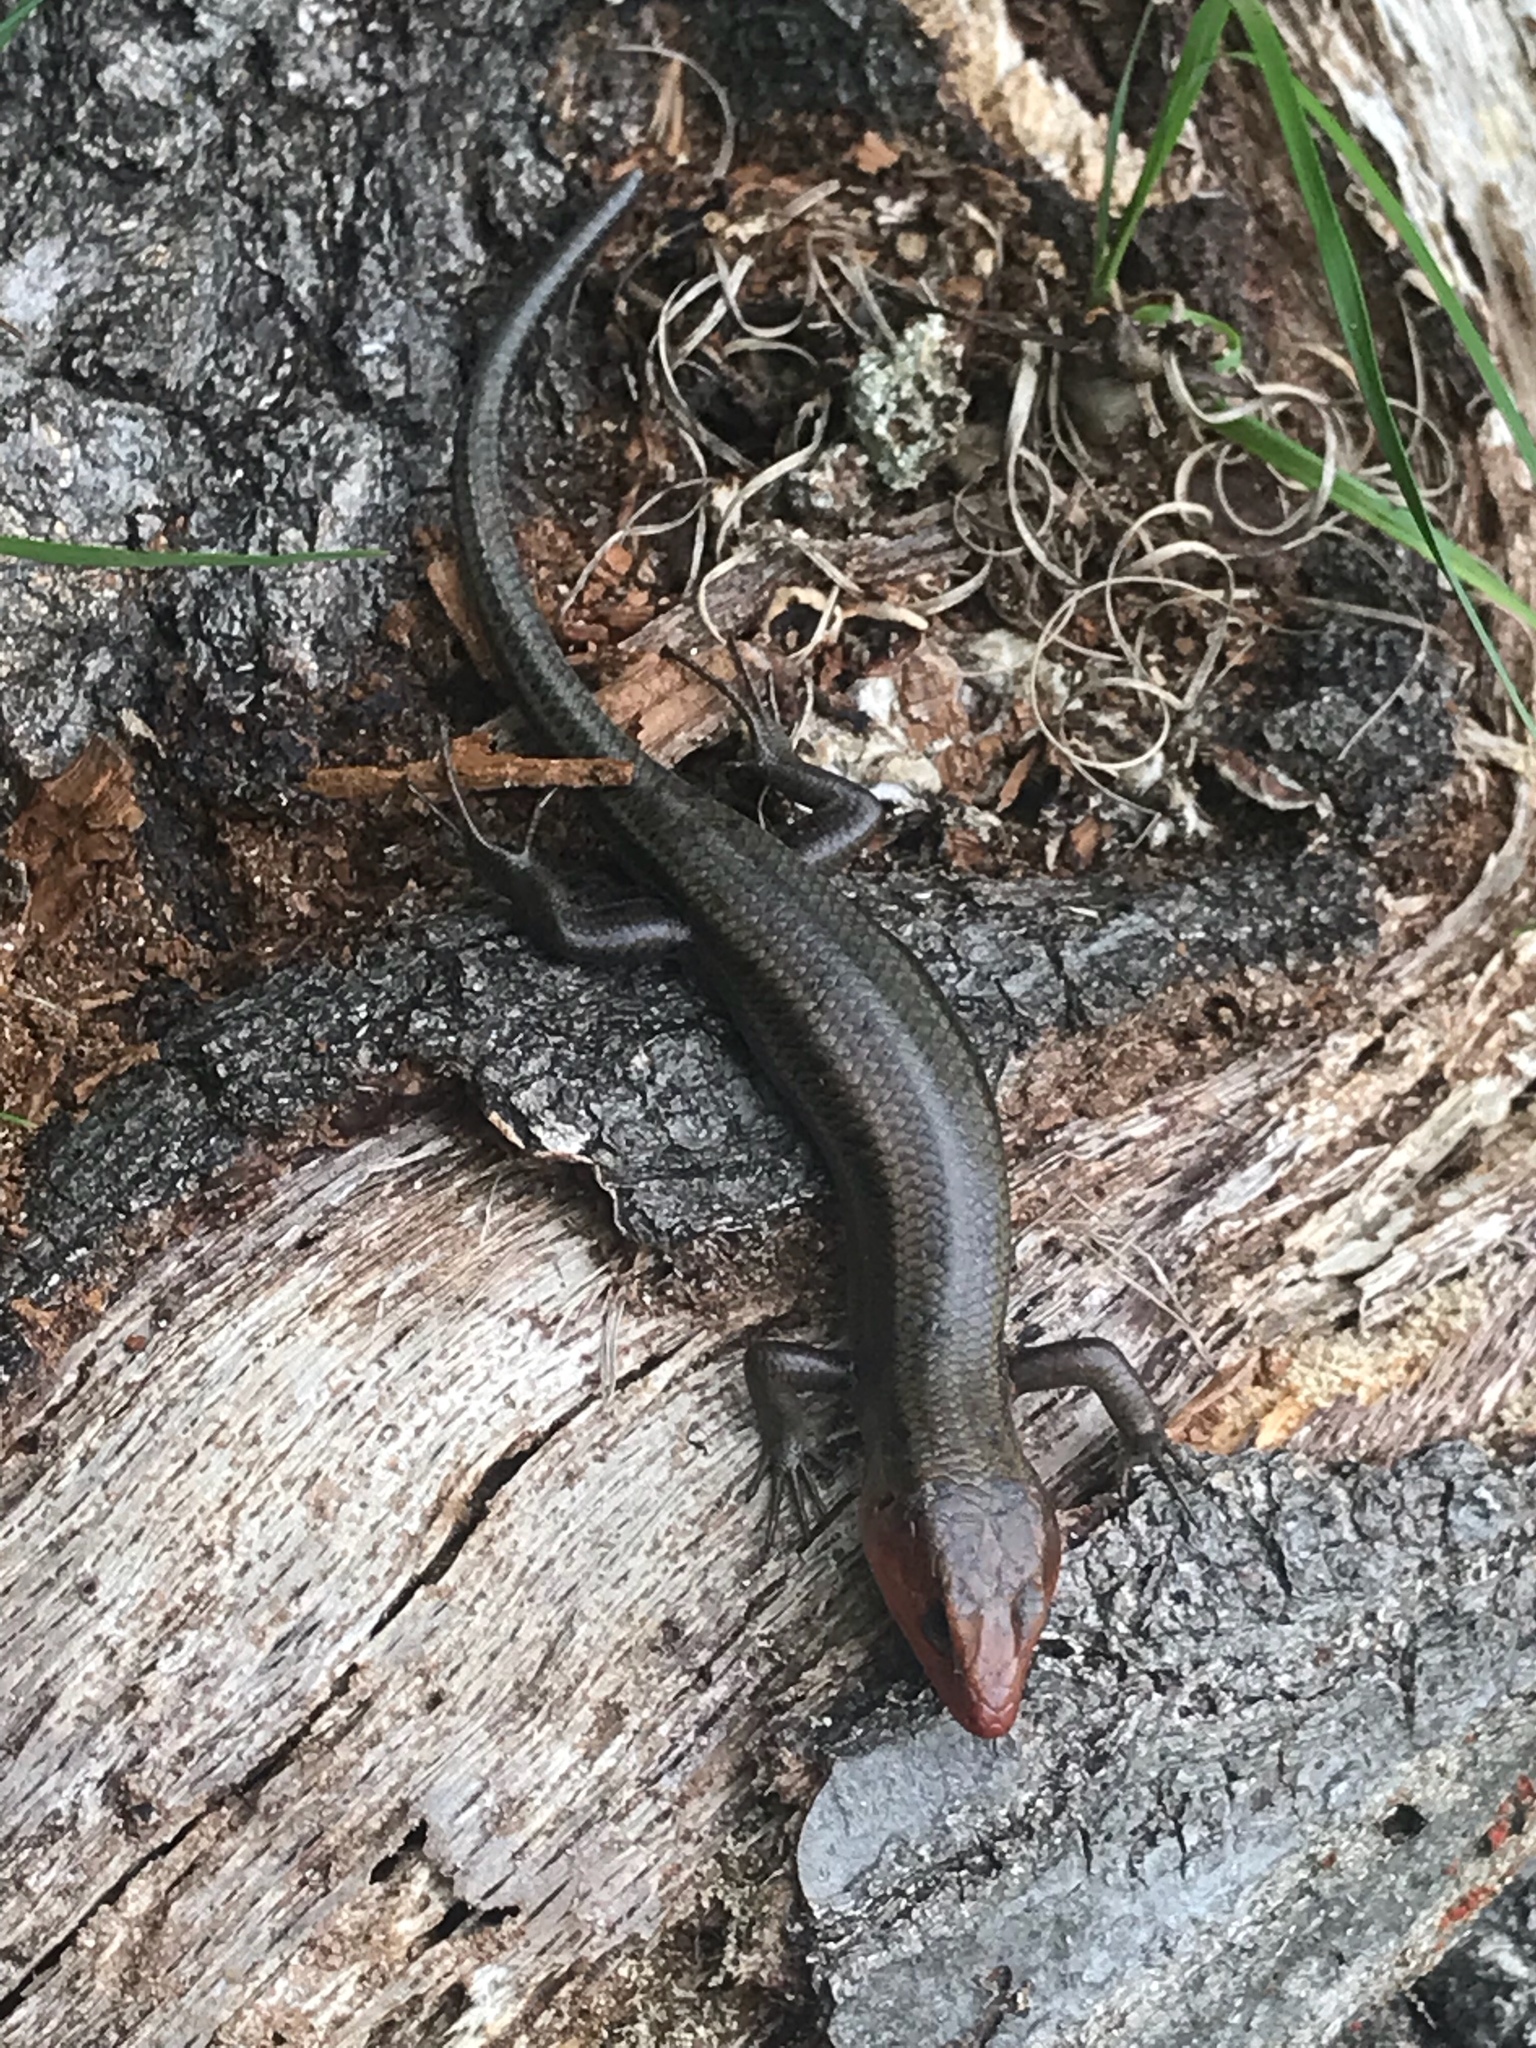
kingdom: Animalia
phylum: Chordata
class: Squamata
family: Scincidae
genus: Plestiodon
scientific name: Plestiodon fasciatus
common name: Five-lined skink
